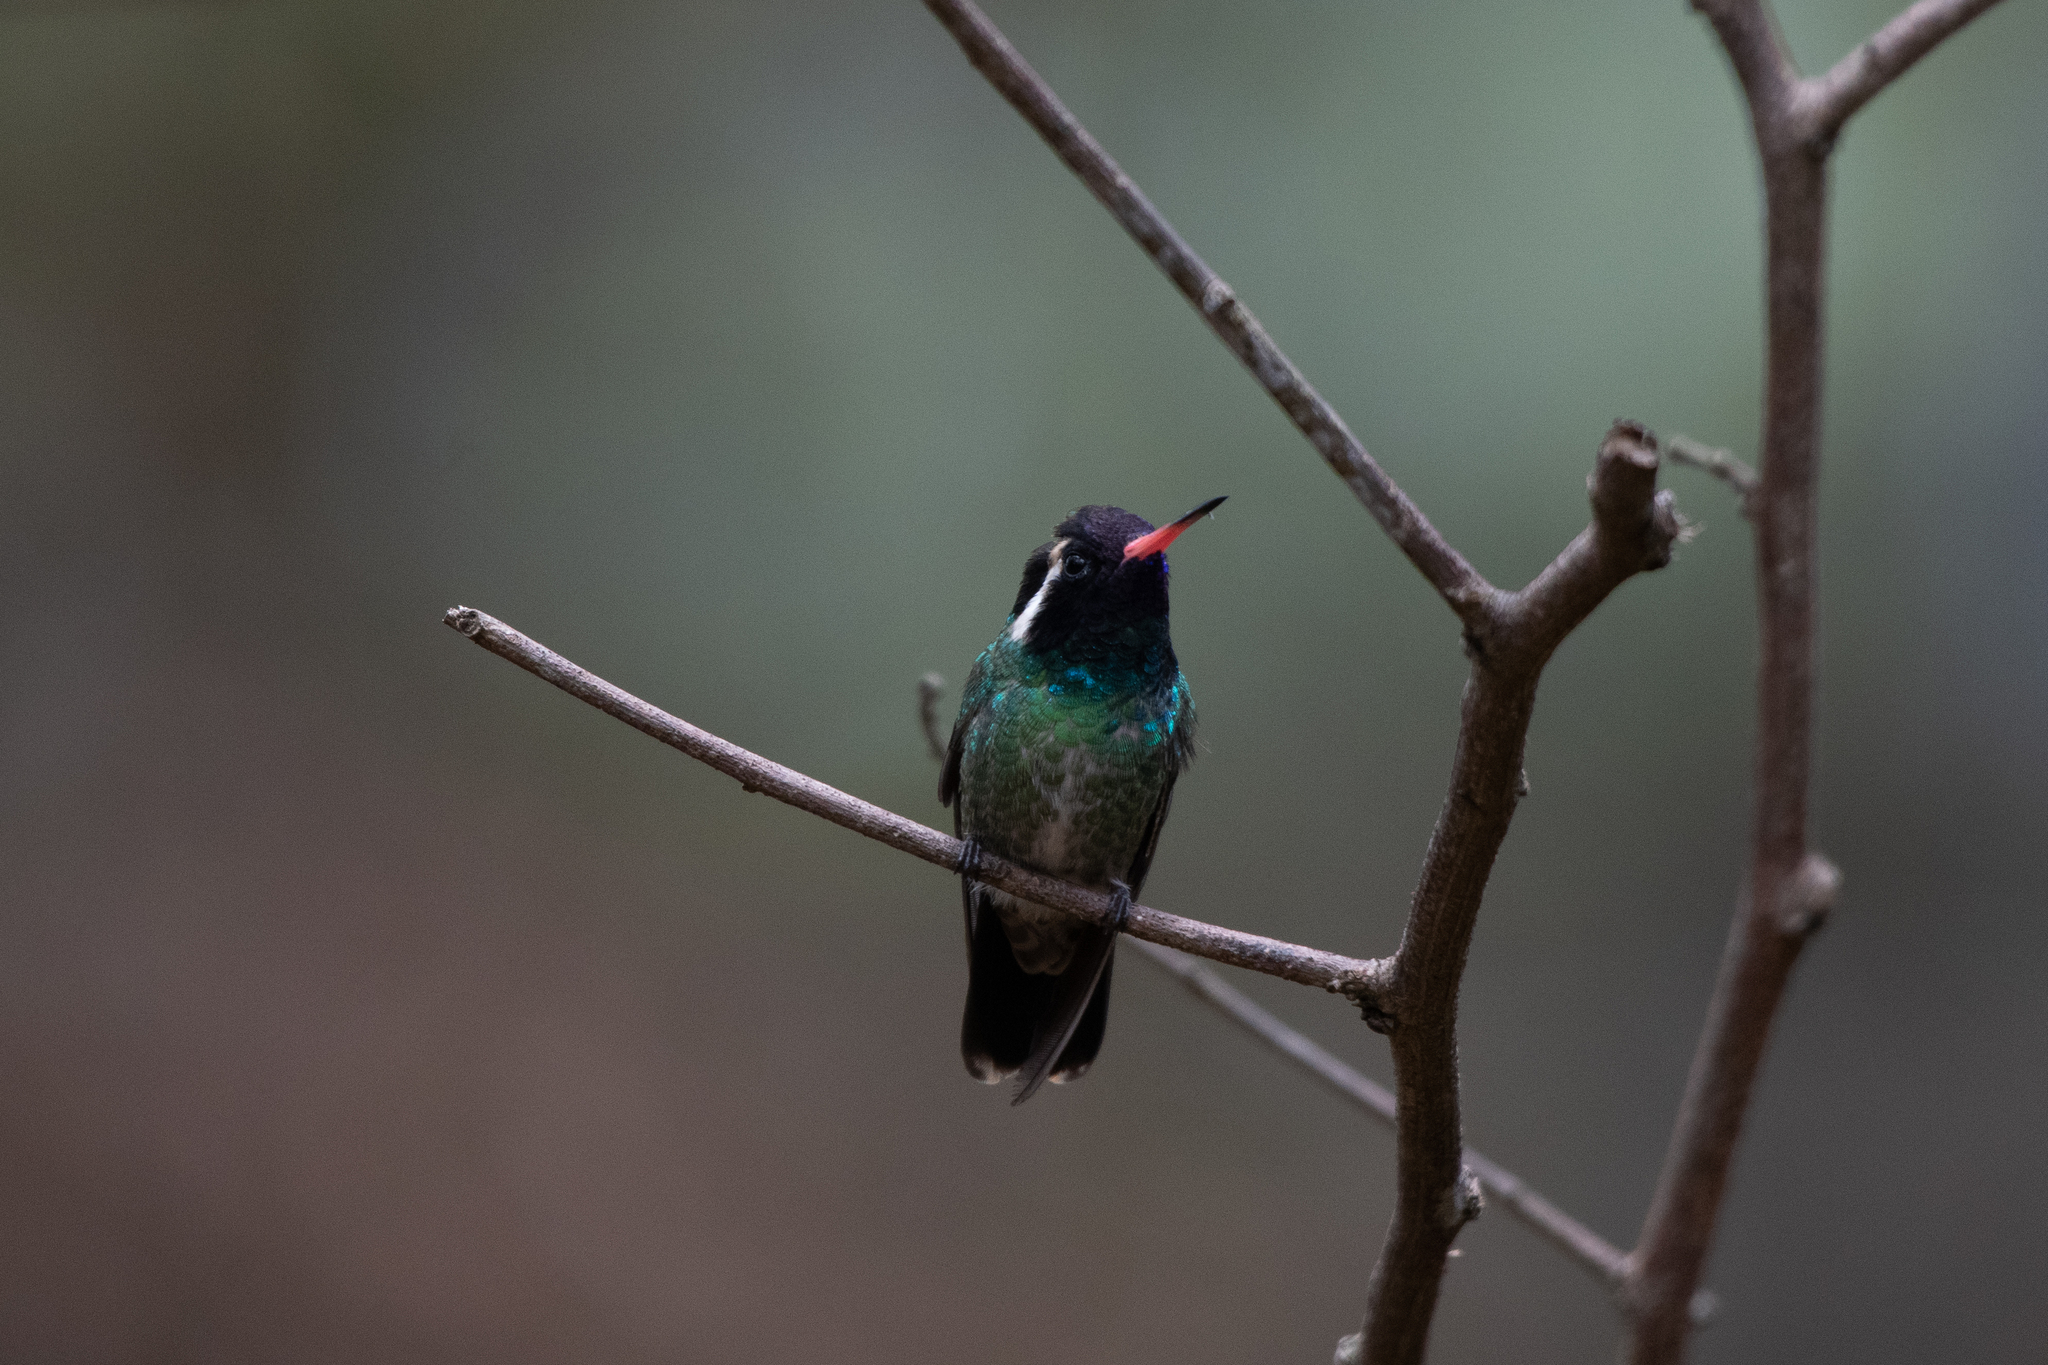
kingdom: Animalia
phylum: Chordata
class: Aves
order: Apodiformes
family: Trochilidae
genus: Basilinna
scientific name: Basilinna leucotis
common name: White-eared hummingbird
